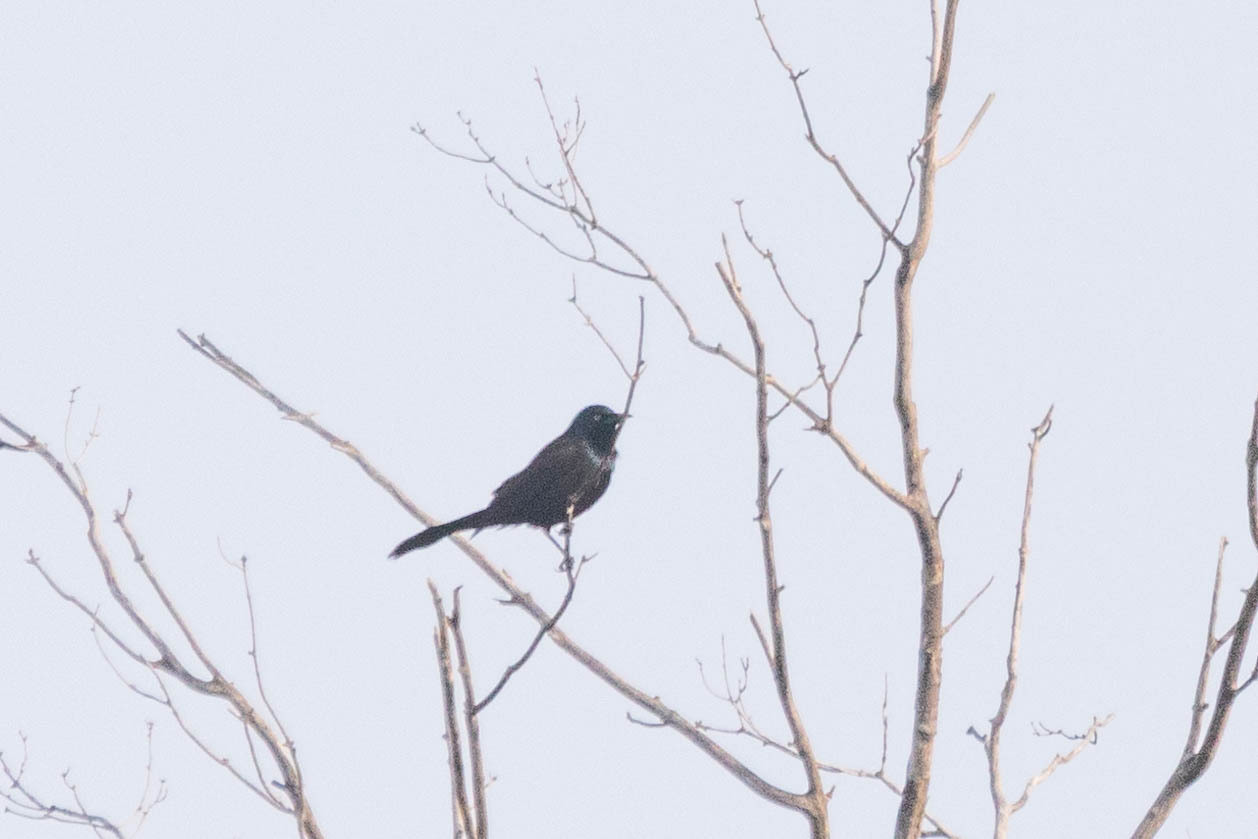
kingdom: Animalia
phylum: Chordata
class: Aves
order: Passeriformes
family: Icteridae
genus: Quiscalus
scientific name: Quiscalus quiscula
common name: Common grackle
